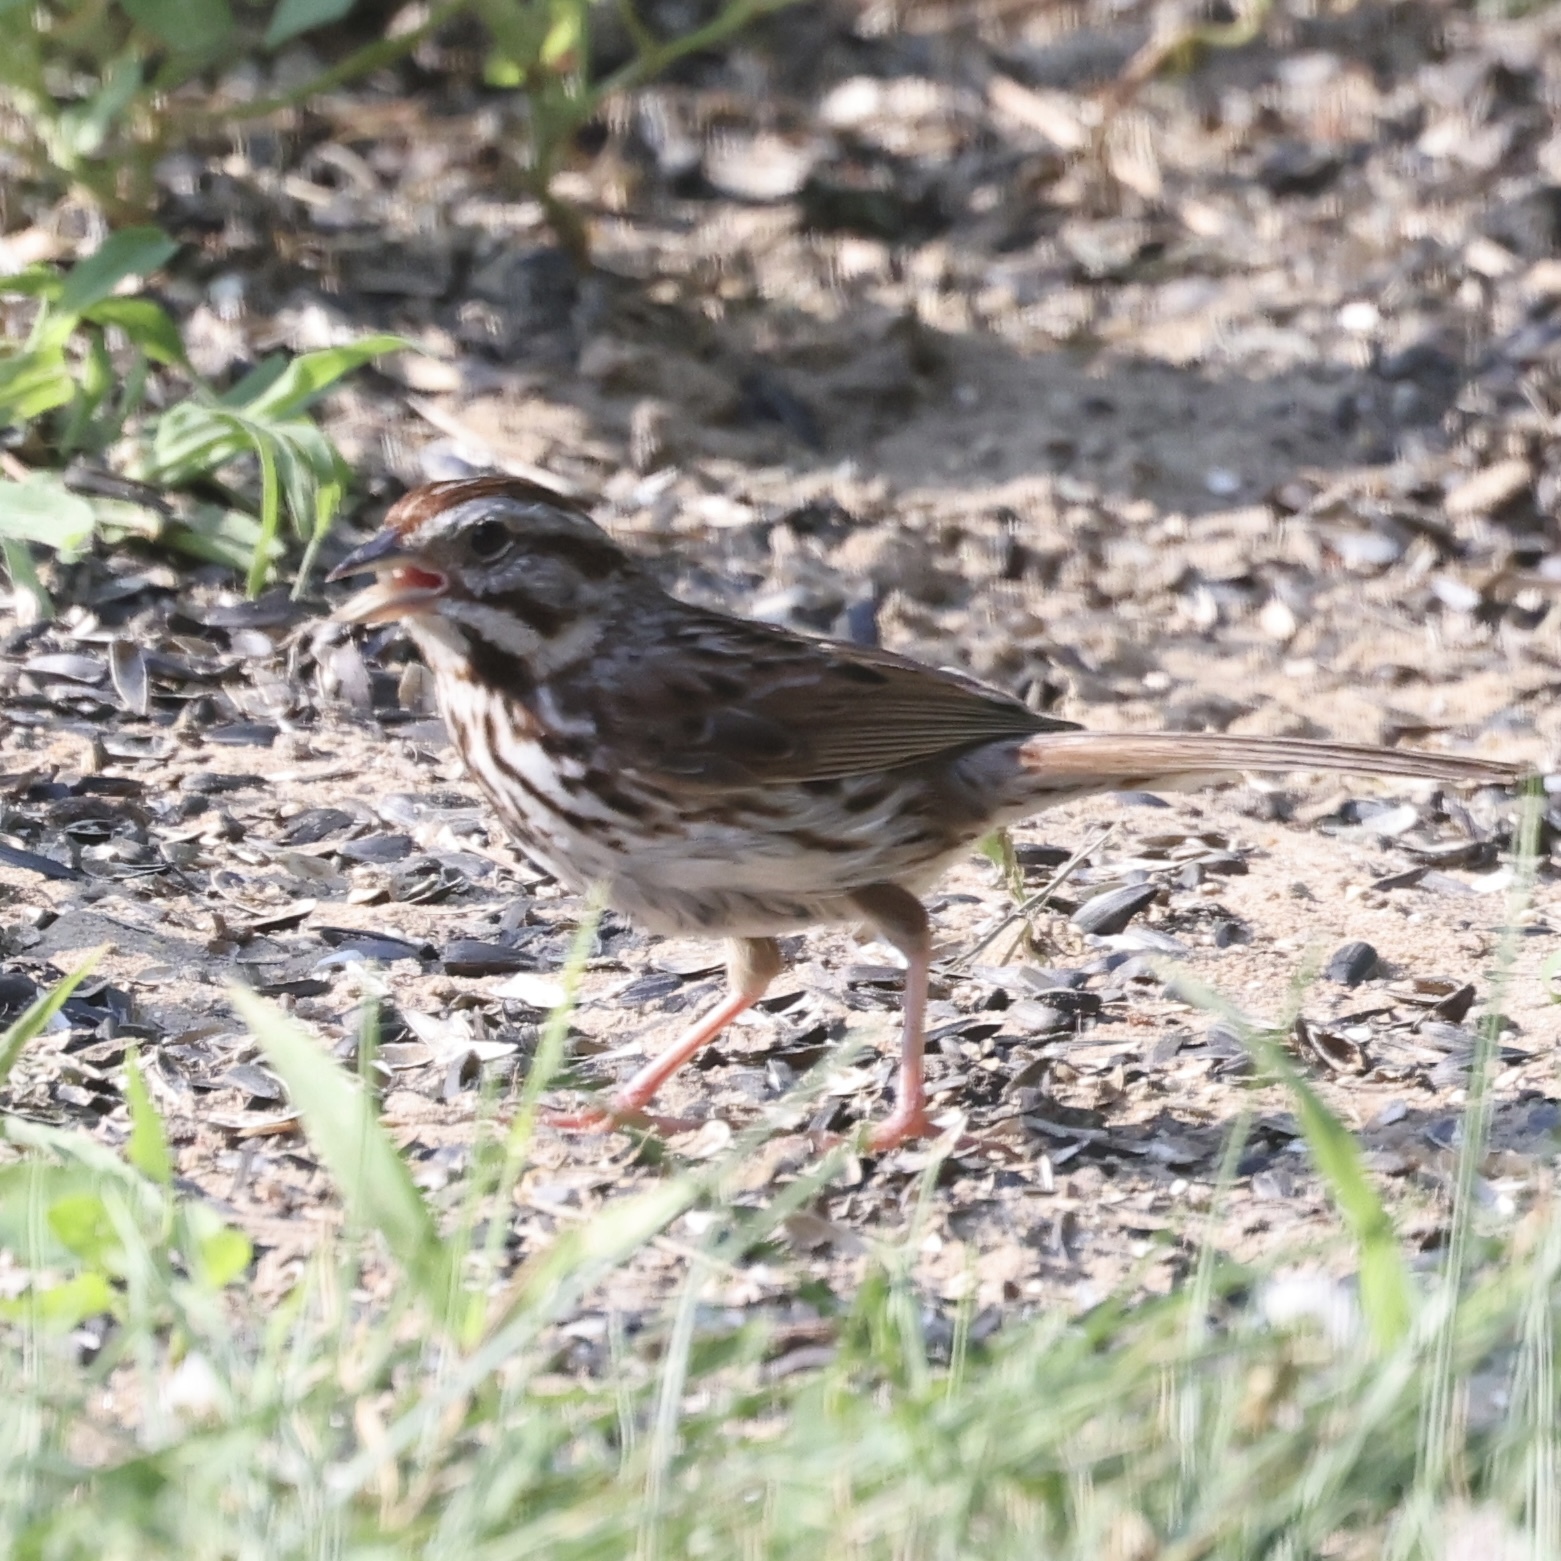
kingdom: Animalia
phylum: Chordata
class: Aves
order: Passeriformes
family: Passerellidae
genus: Melospiza
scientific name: Melospiza melodia
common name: Song sparrow
